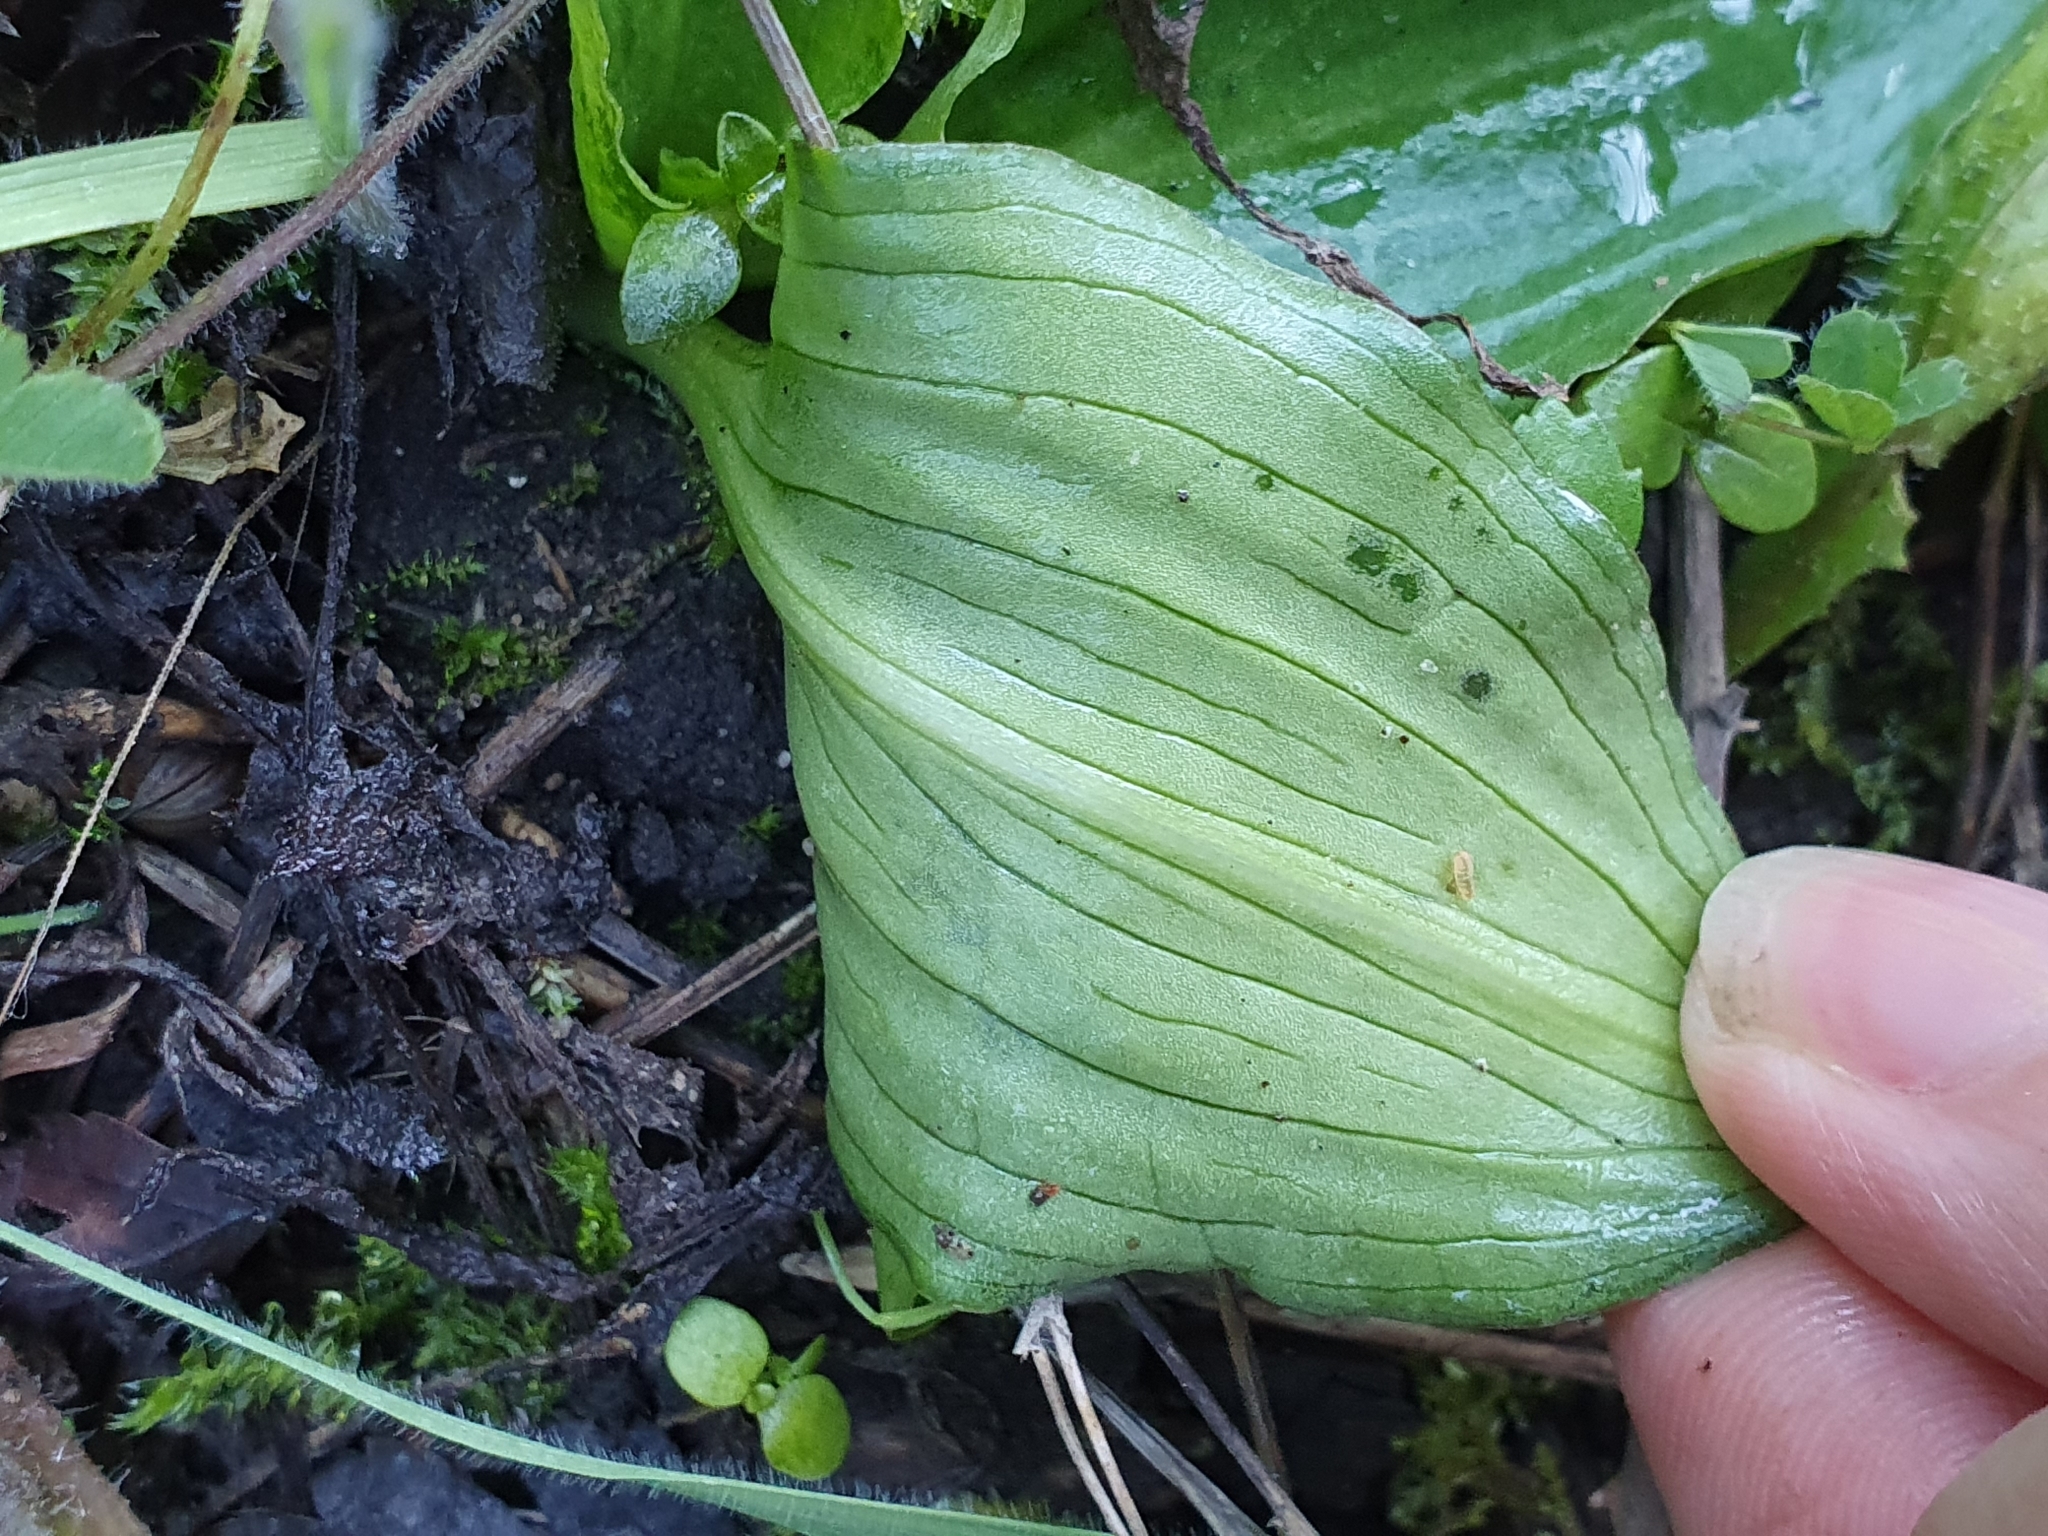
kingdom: Plantae
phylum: Tracheophyta
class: Liliopsida
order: Alismatales
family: Araceae
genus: Ambrosina
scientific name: Ambrosina bassii
